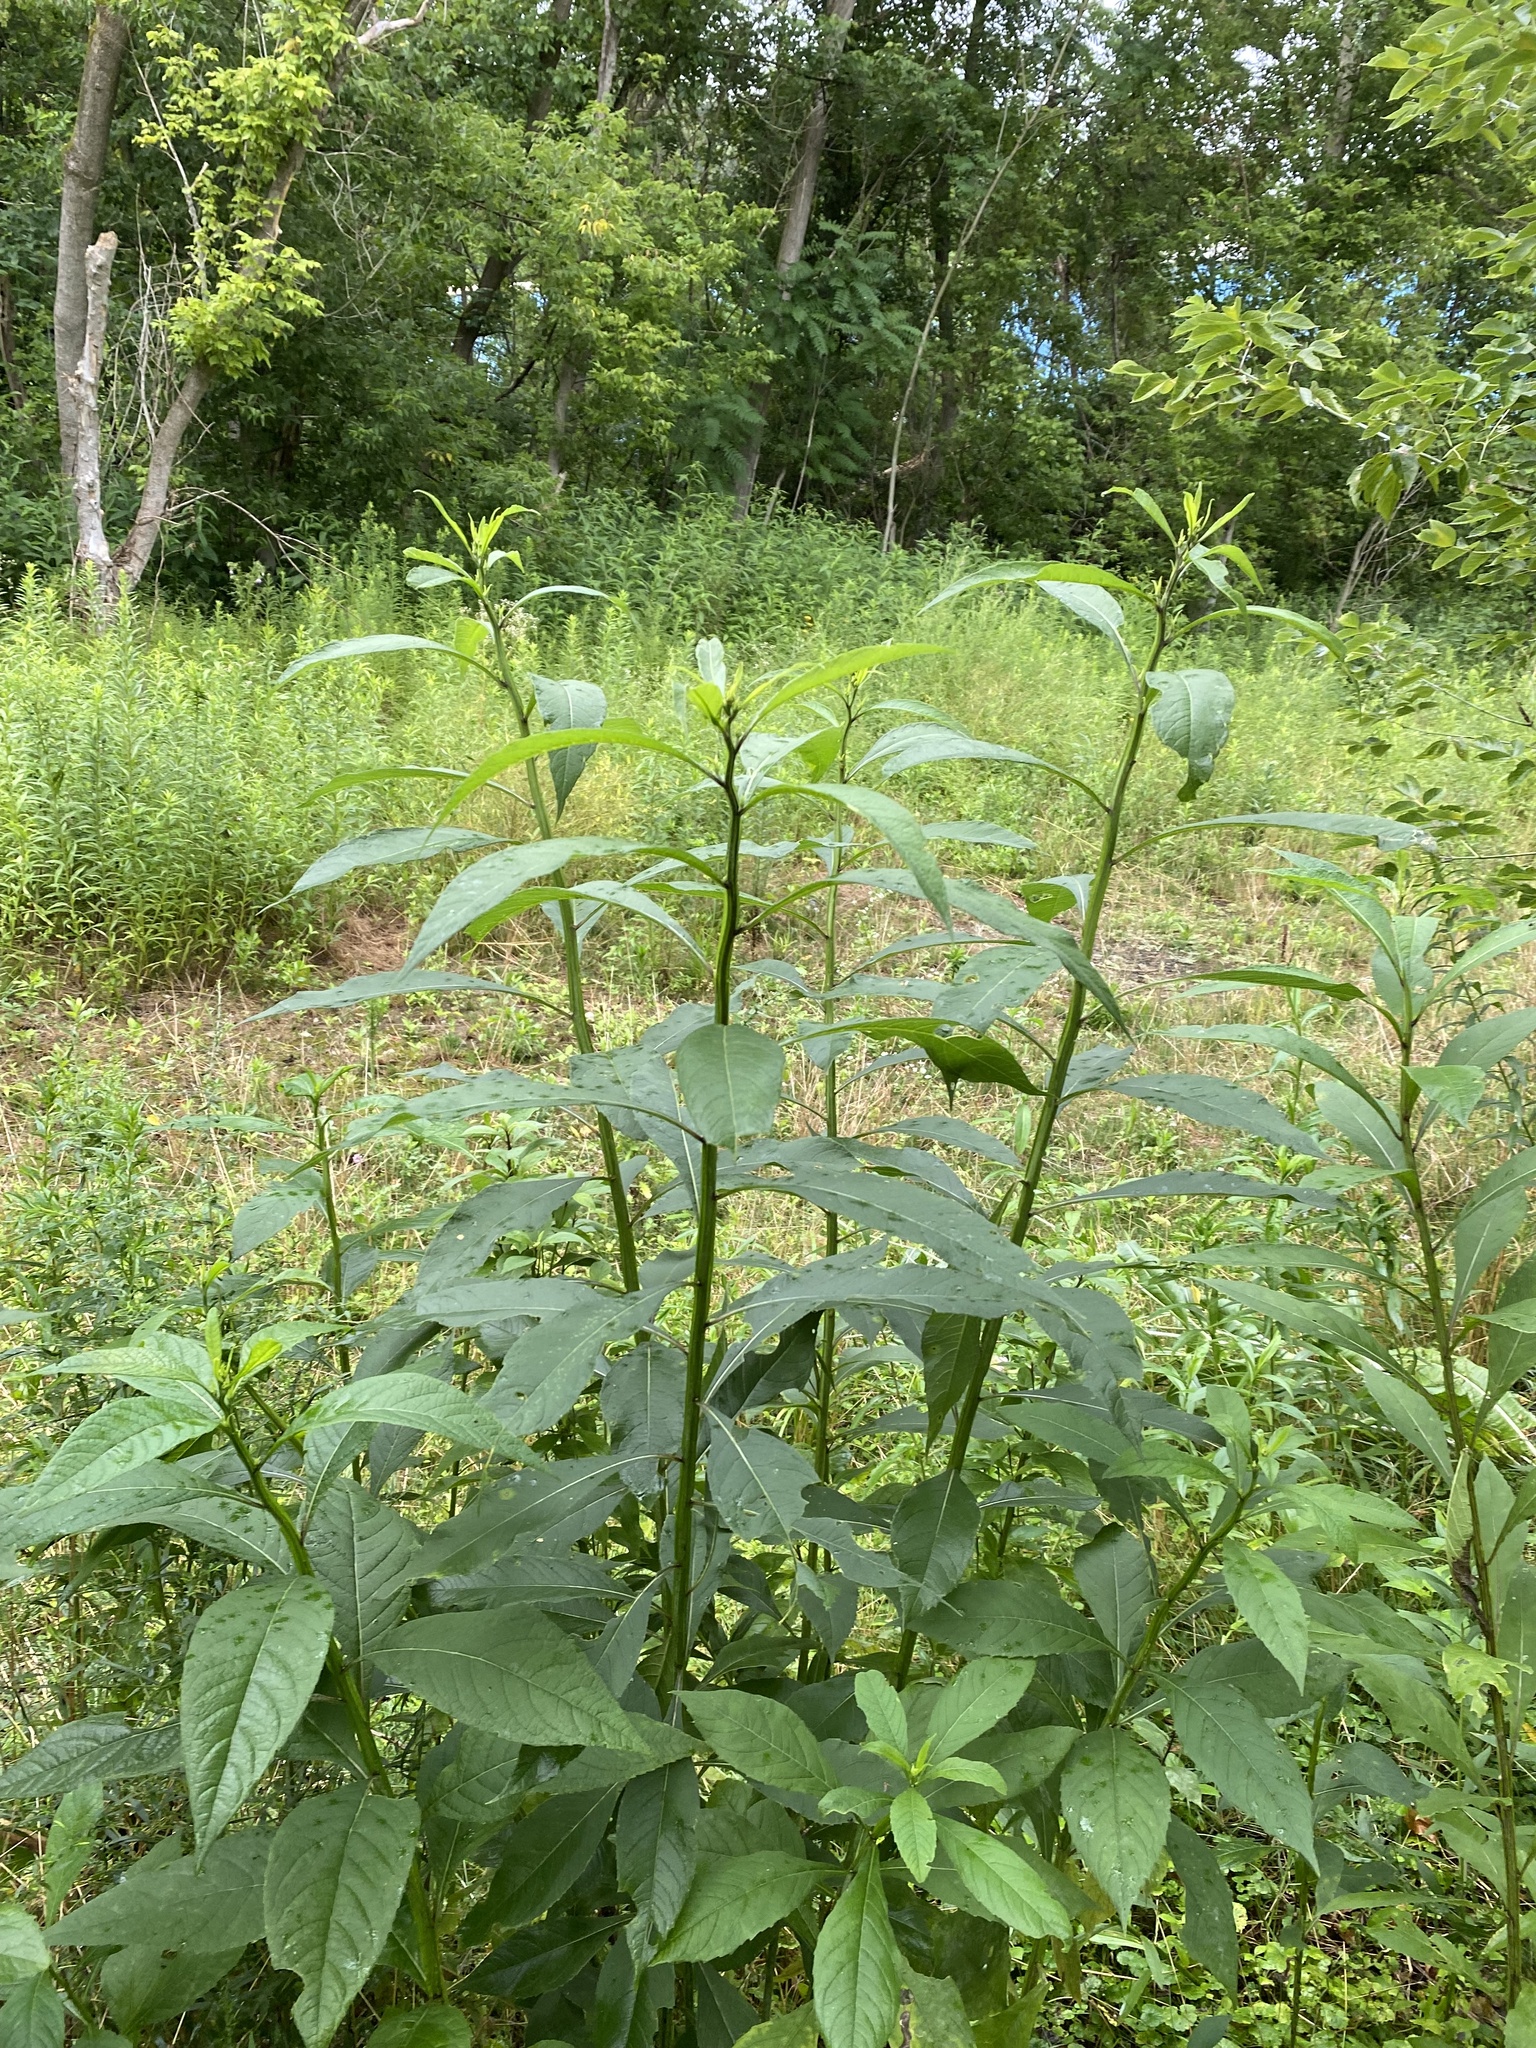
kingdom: Plantae
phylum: Tracheophyta
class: Magnoliopsida
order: Asterales
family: Asteraceae
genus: Verbesina
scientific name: Verbesina alternifolia
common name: Wingstem
